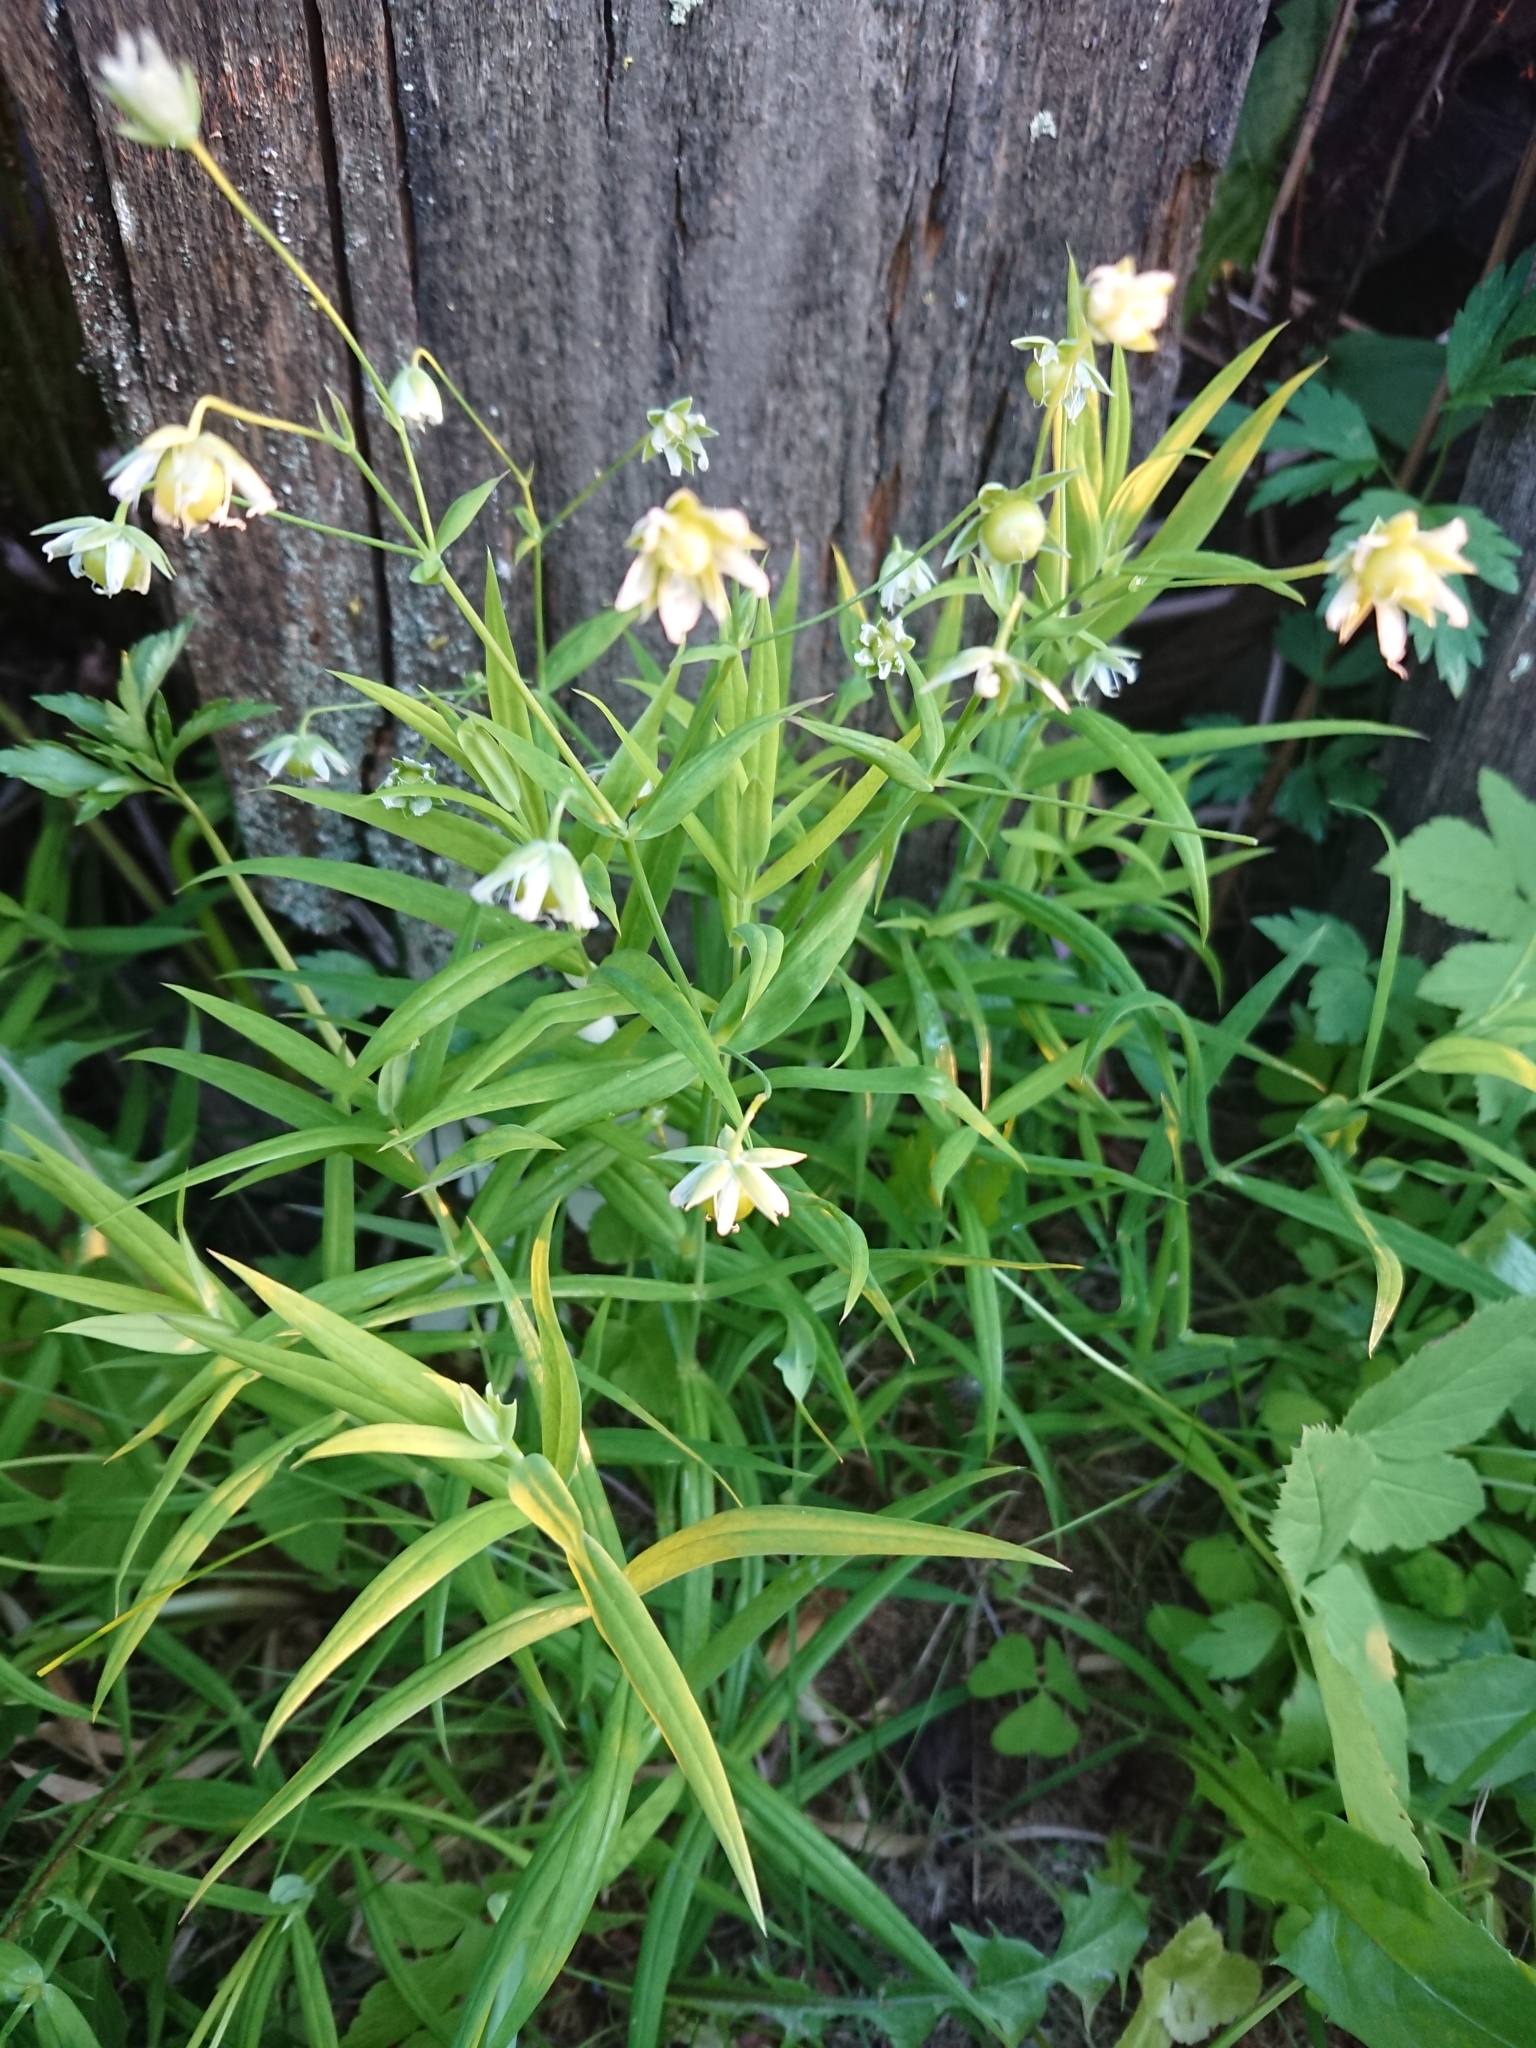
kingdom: Plantae
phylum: Tracheophyta
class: Magnoliopsida
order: Caryophyllales
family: Caryophyllaceae
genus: Rabelera
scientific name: Rabelera holostea
